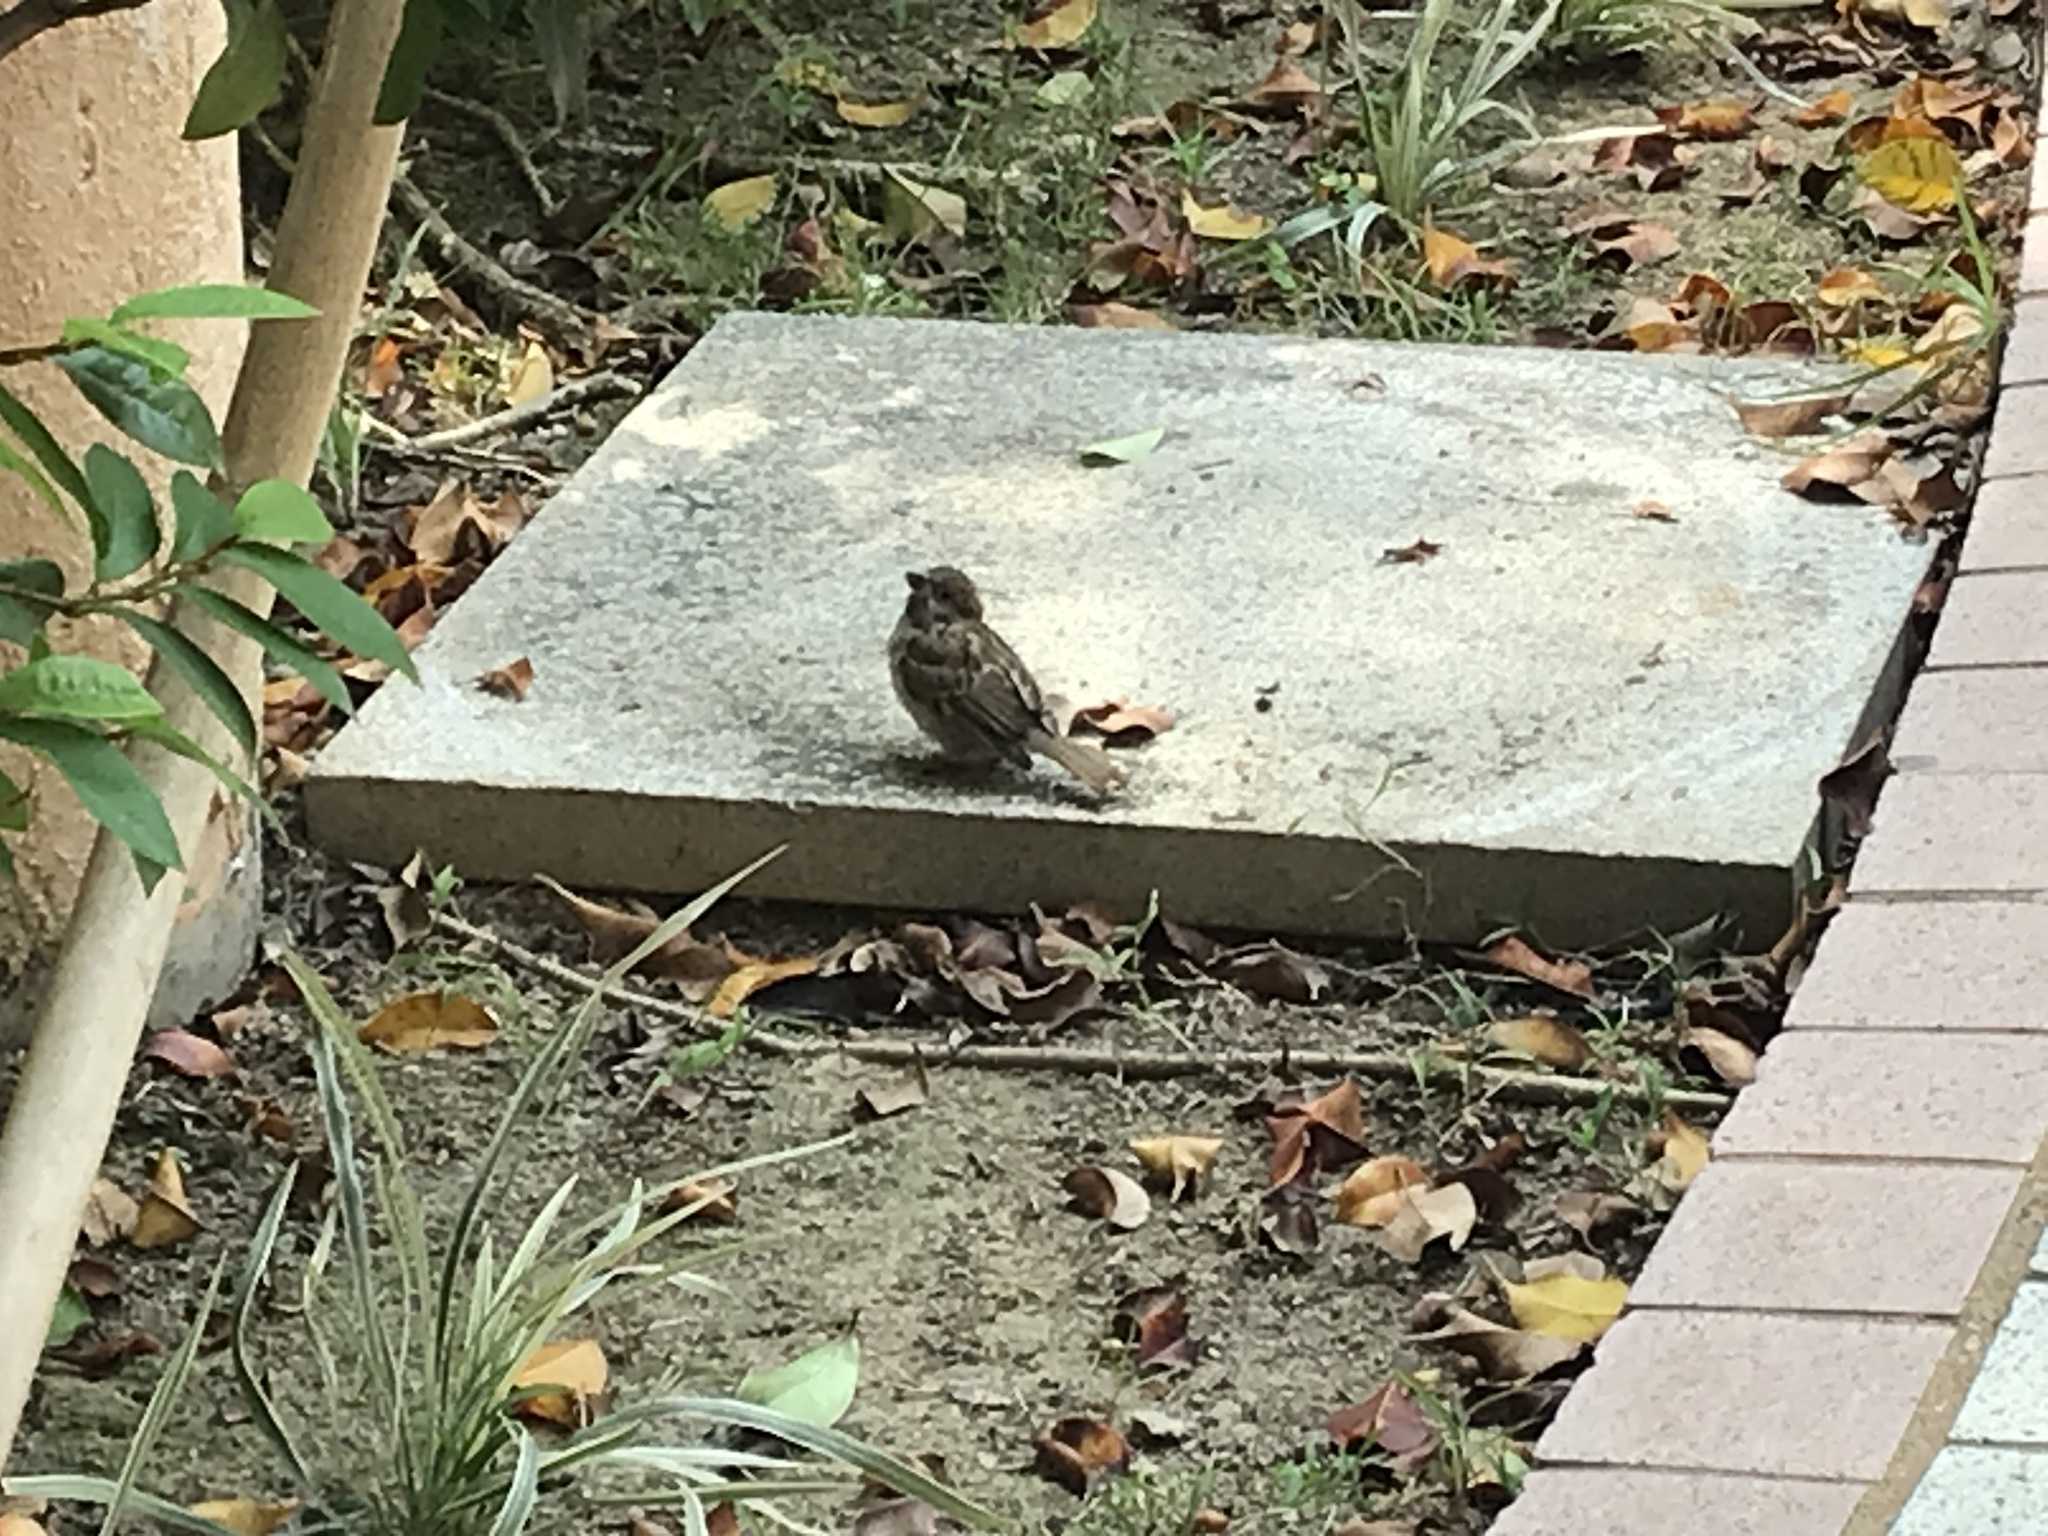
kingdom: Animalia
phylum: Chordata
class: Aves
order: Passeriformes
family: Passeridae
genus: Passer
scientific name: Passer montanus
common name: Eurasian tree sparrow
